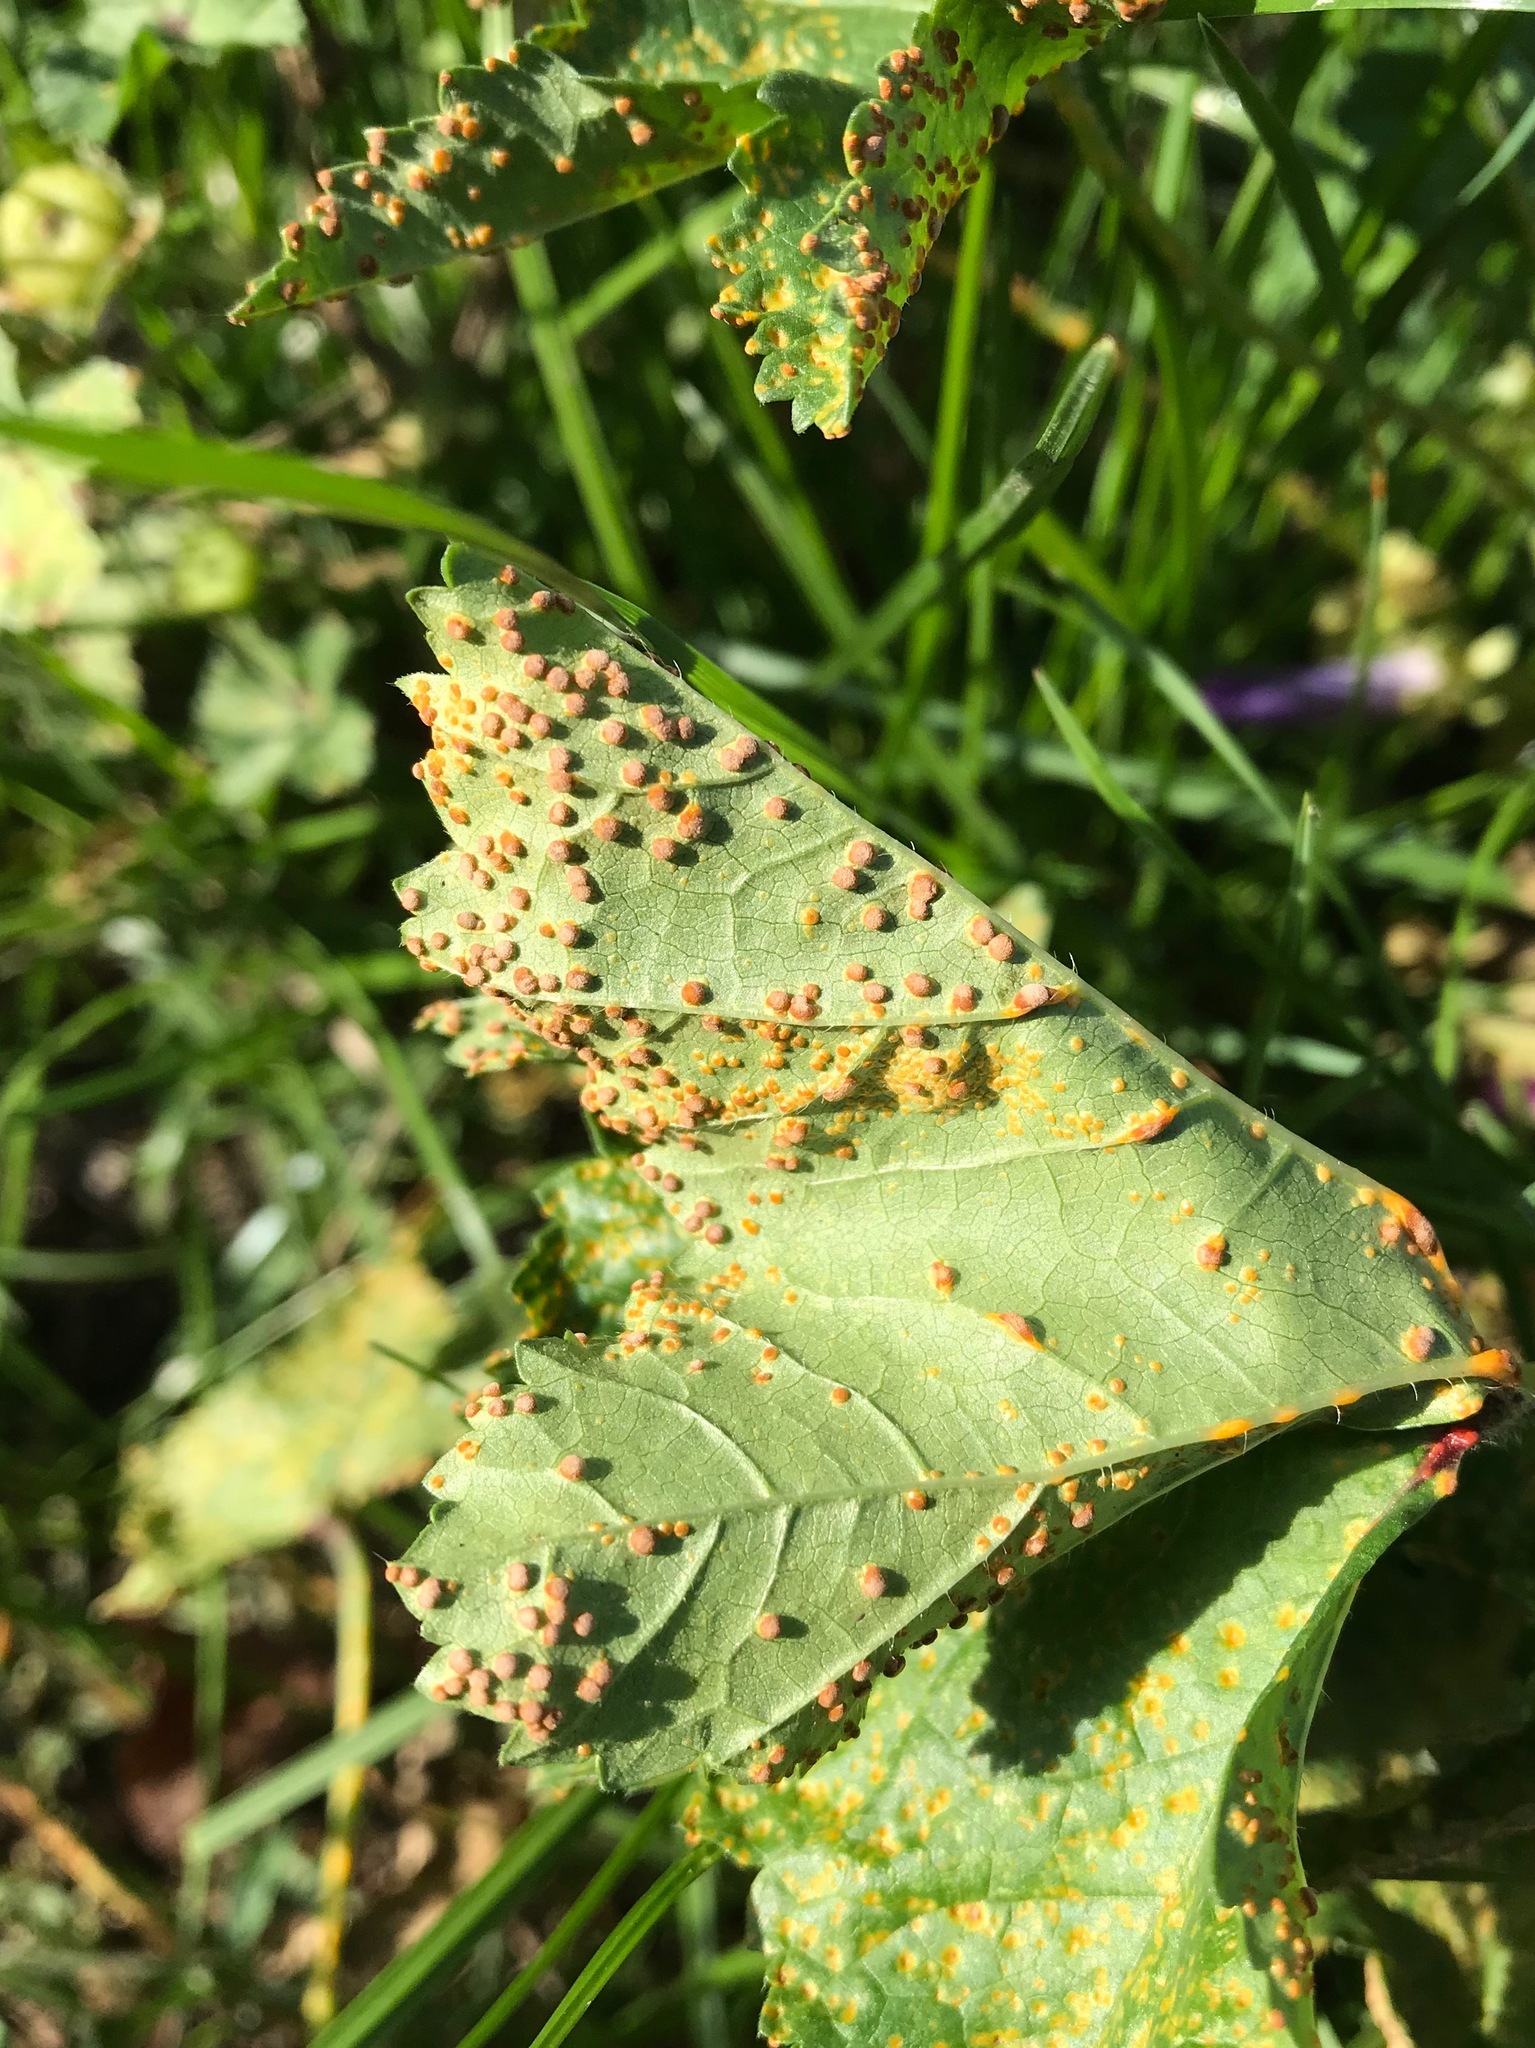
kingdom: Fungi
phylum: Basidiomycota
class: Pucciniomycetes
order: Pucciniales
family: Pucciniaceae
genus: Puccinia
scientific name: Puccinia malvacearum
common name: Hollyhock rust
